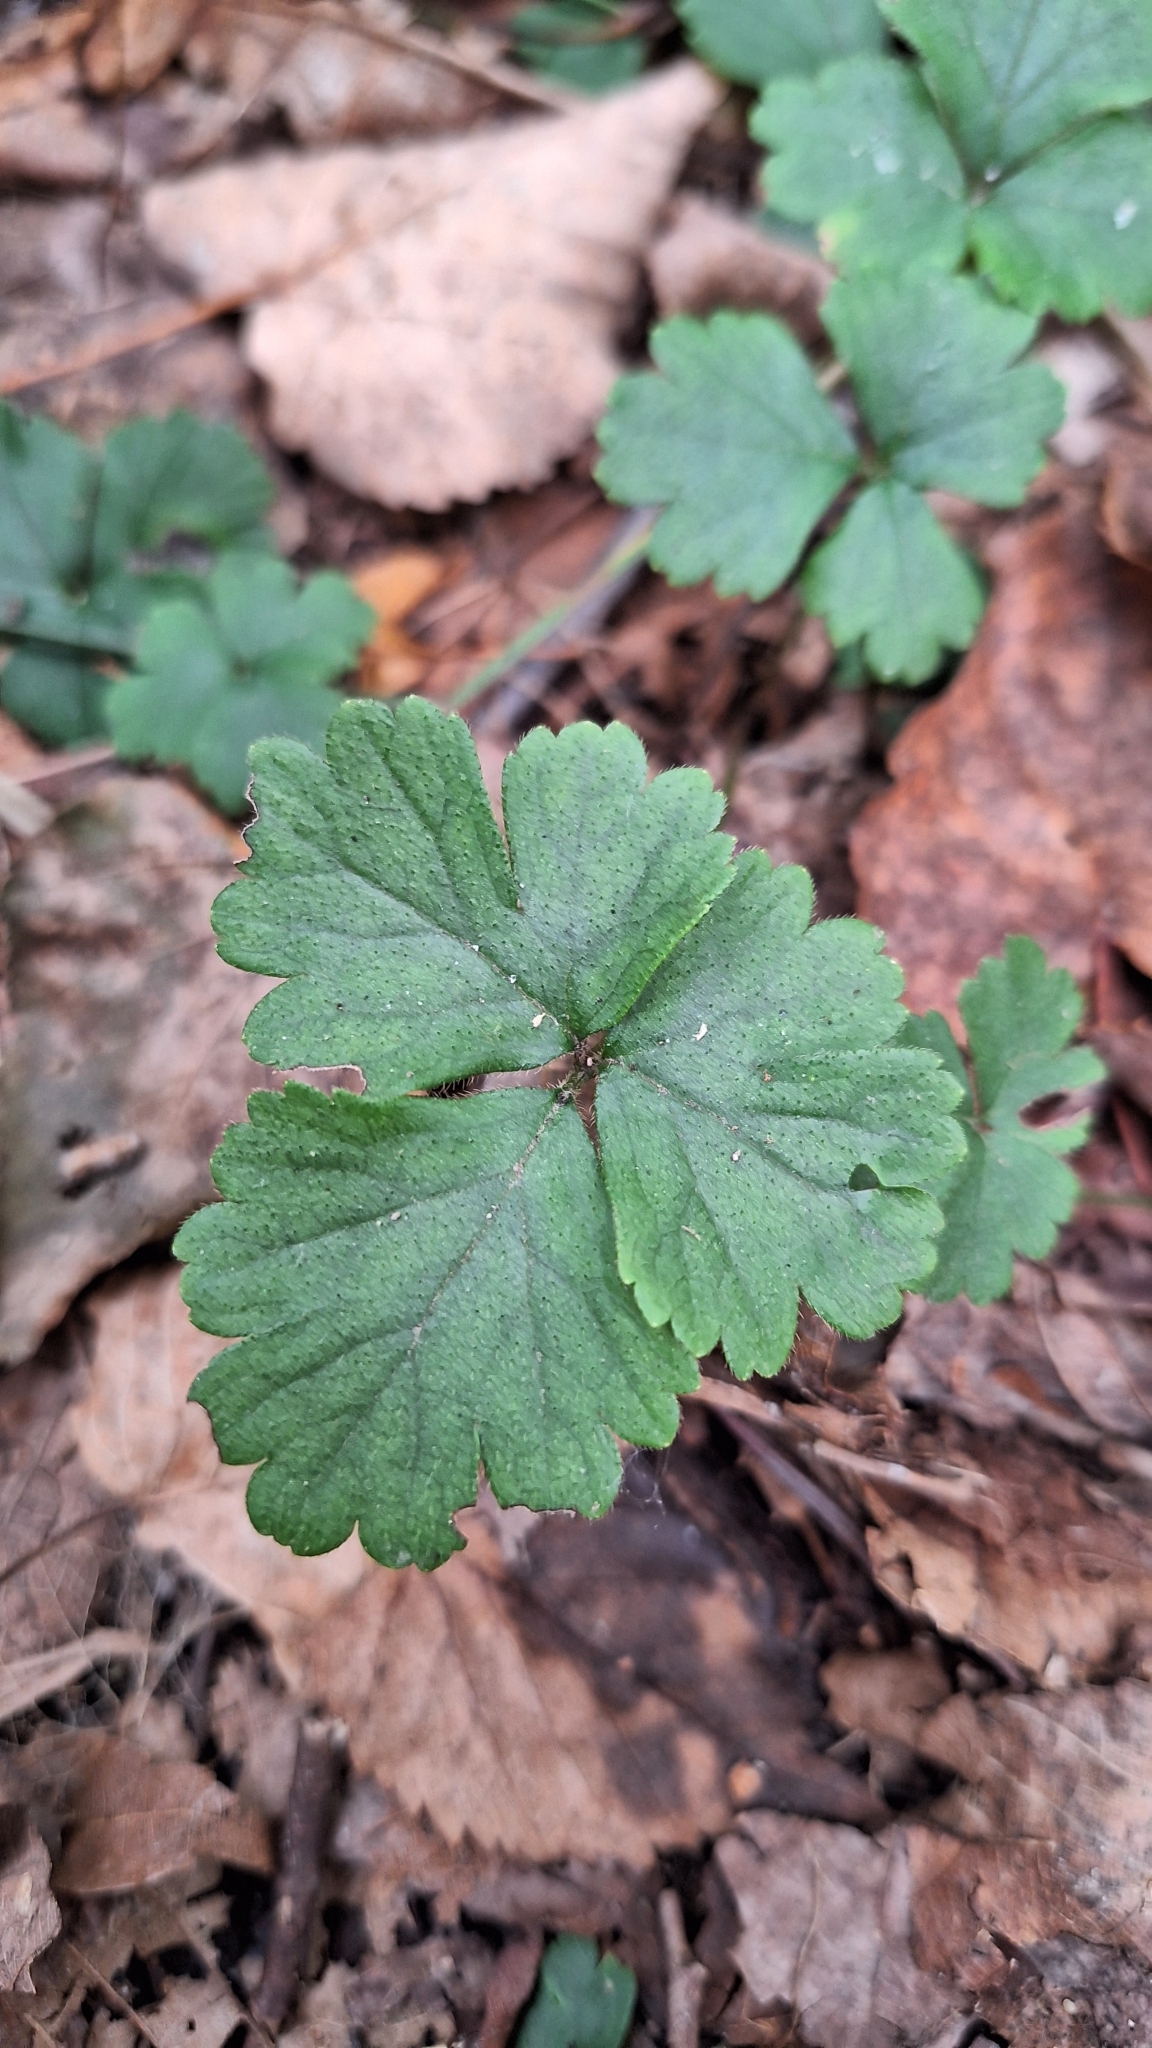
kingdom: Plantae
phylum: Tracheophyta
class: Magnoliopsida
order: Rosales
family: Rosaceae
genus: Geum
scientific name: Geum ternatum
